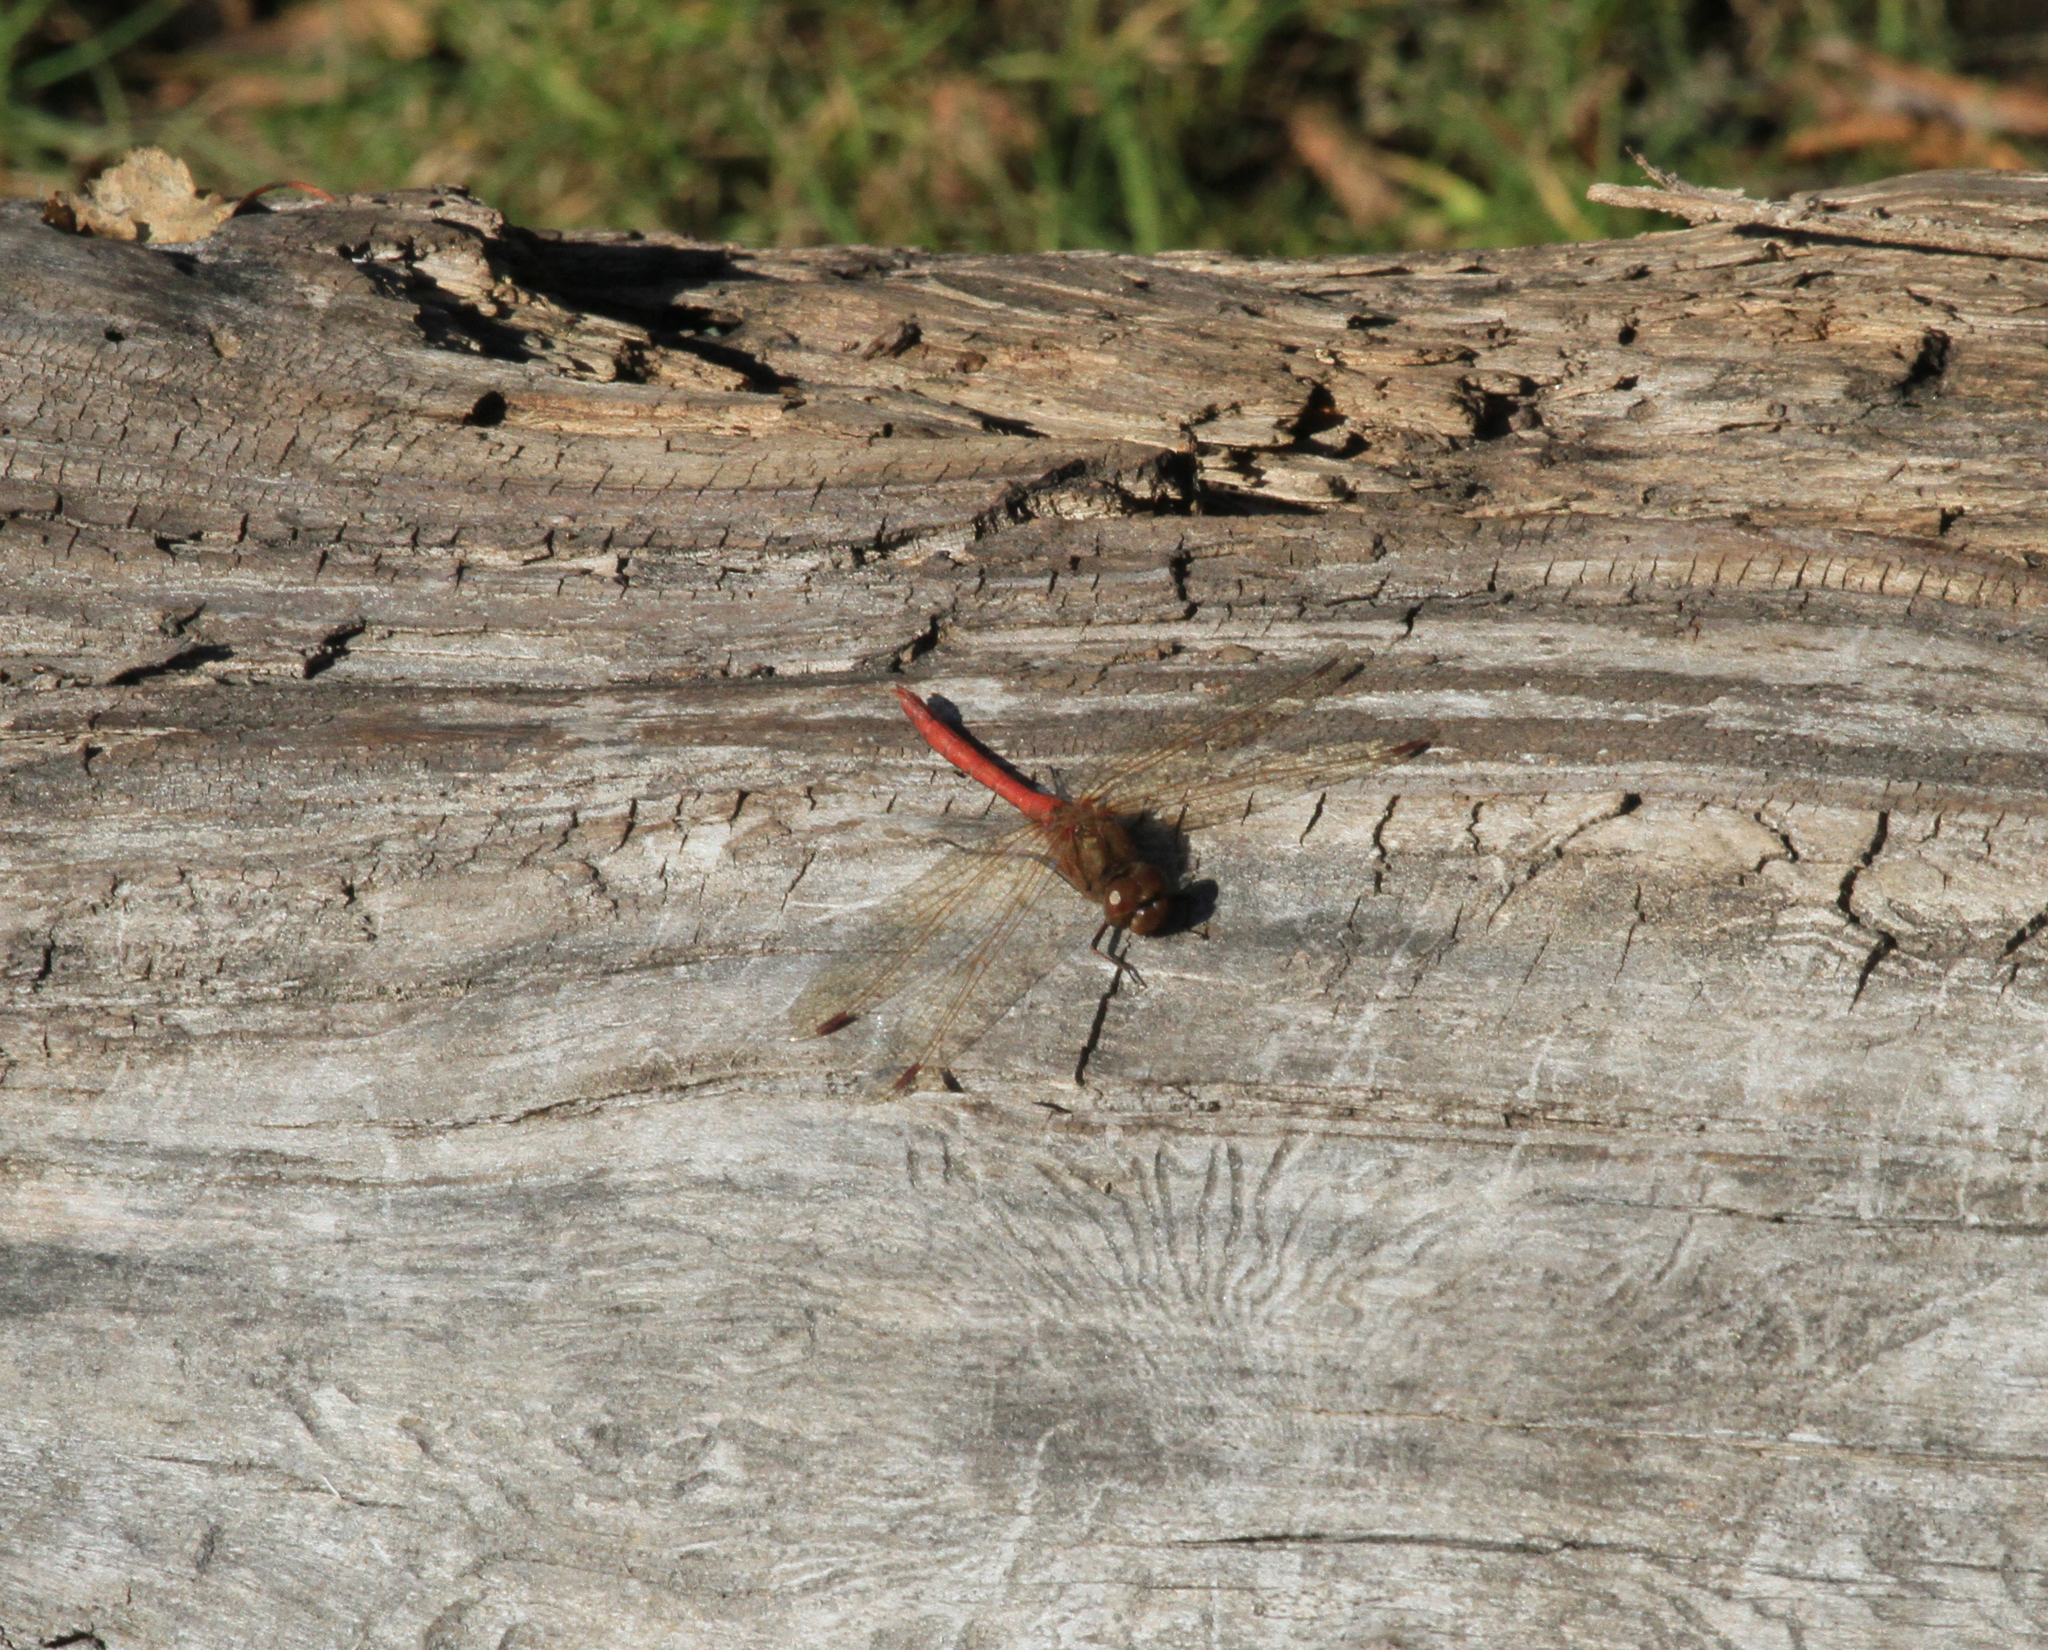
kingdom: Animalia
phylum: Arthropoda
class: Insecta
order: Odonata
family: Libellulidae
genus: Sympetrum
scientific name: Sympetrum vulgatum
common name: Vagrant darter
